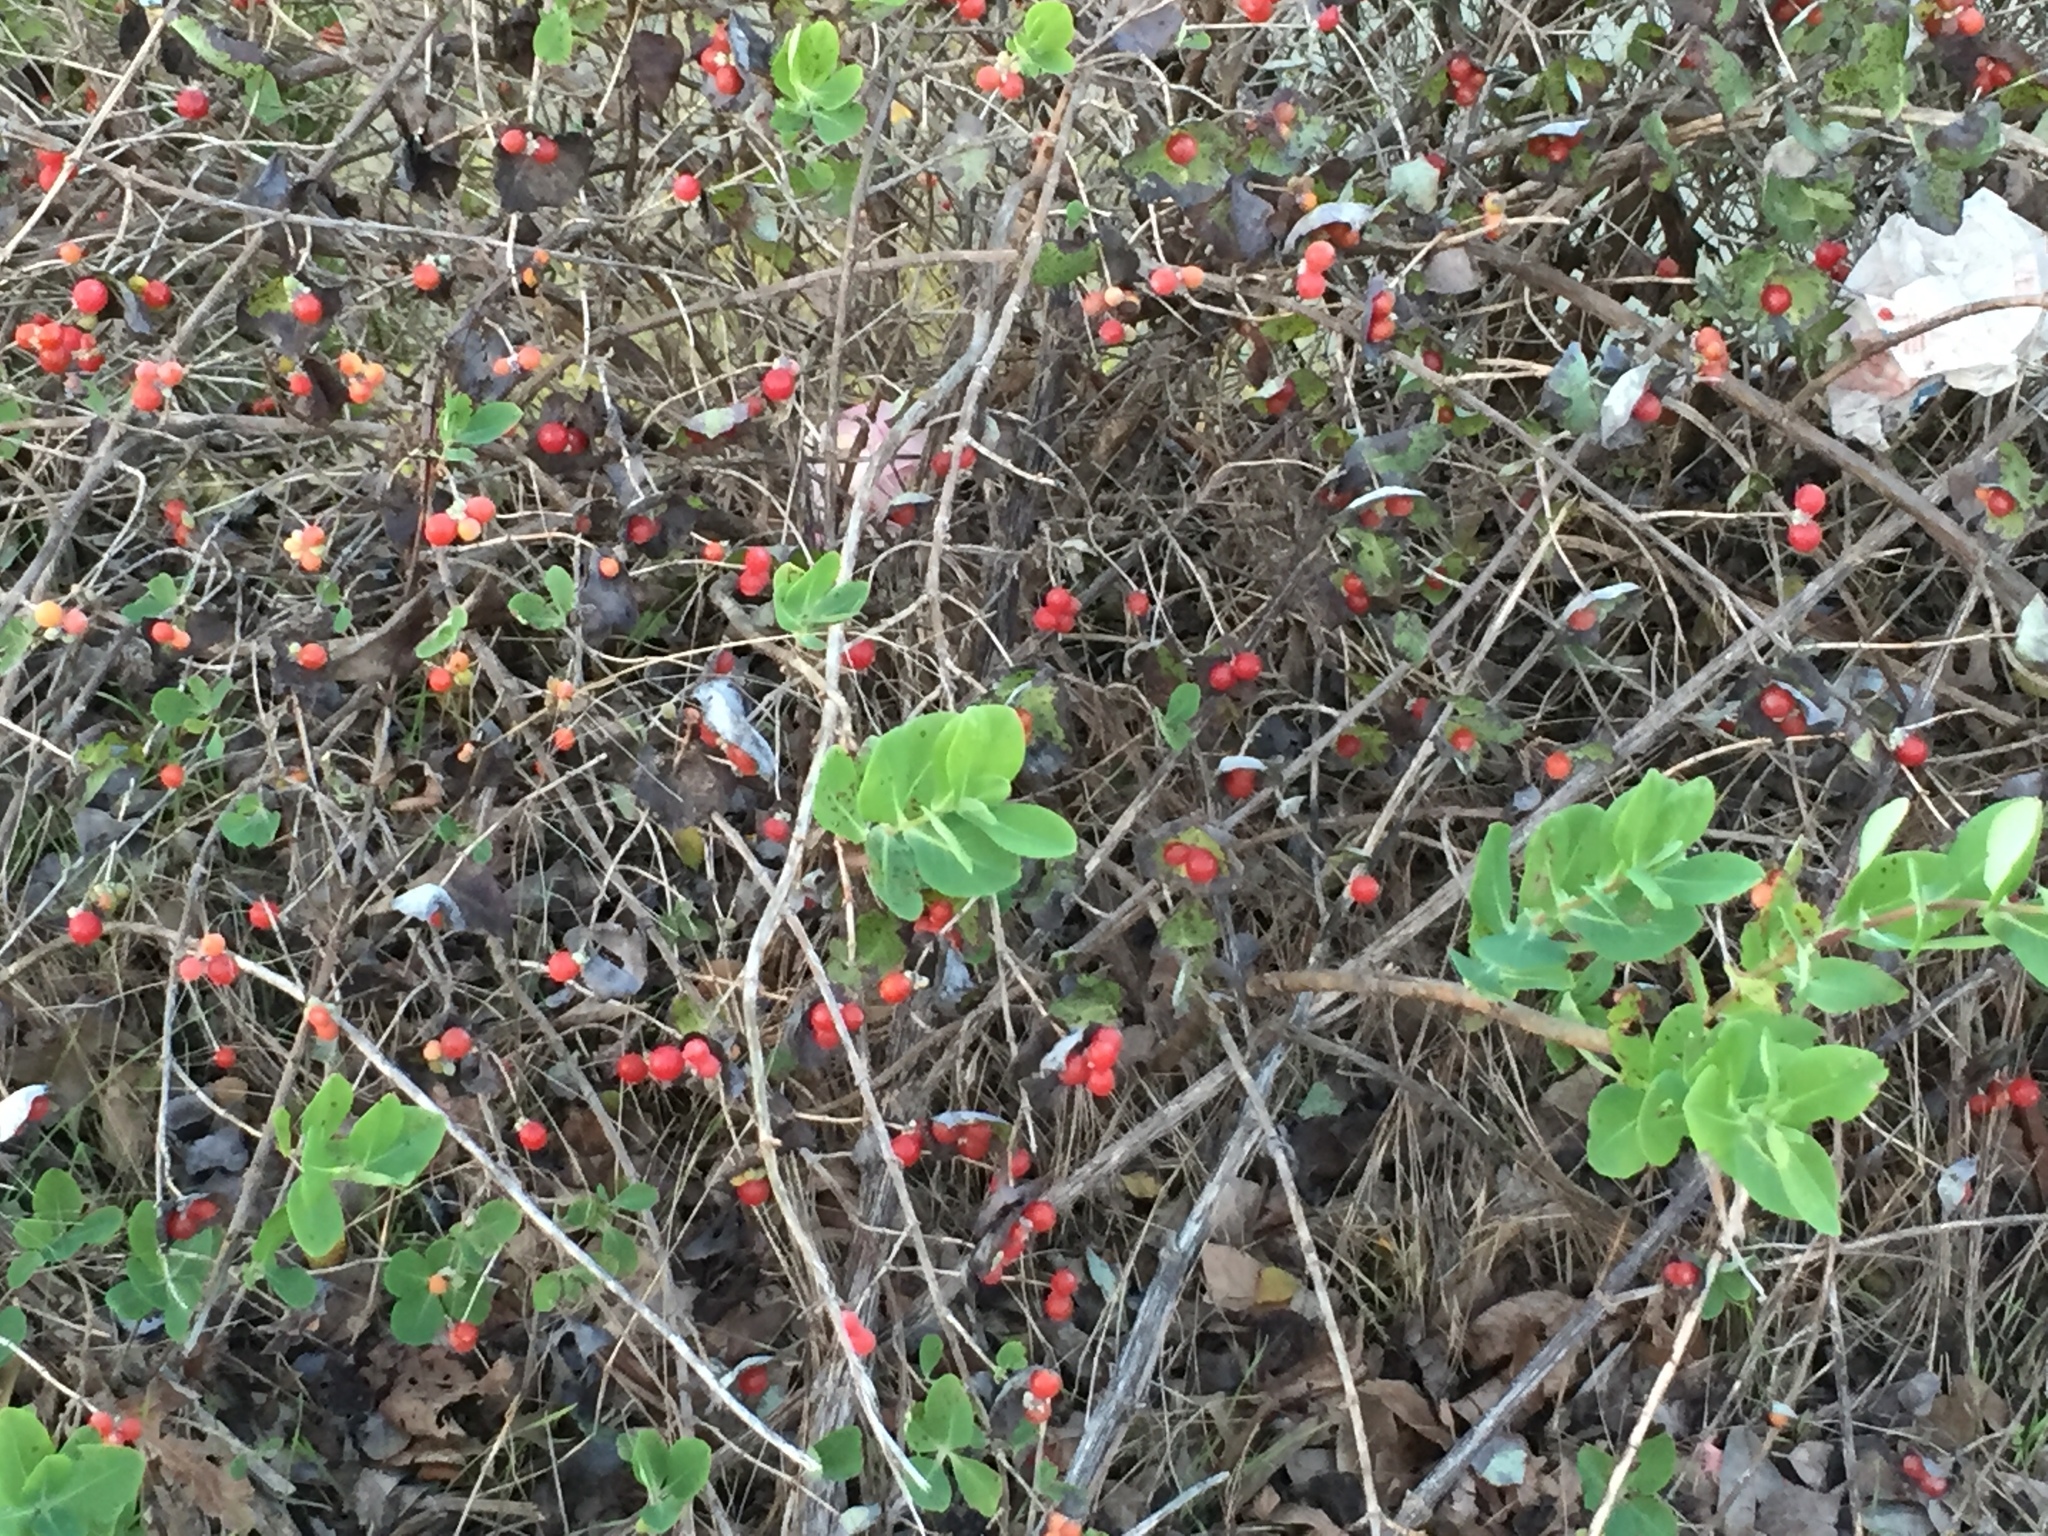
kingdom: Plantae
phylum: Tracheophyta
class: Magnoliopsida
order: Dipsacales
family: Caprifoliaceae
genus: Lonicera
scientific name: Lonicera albiflora
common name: White honeysuckle
